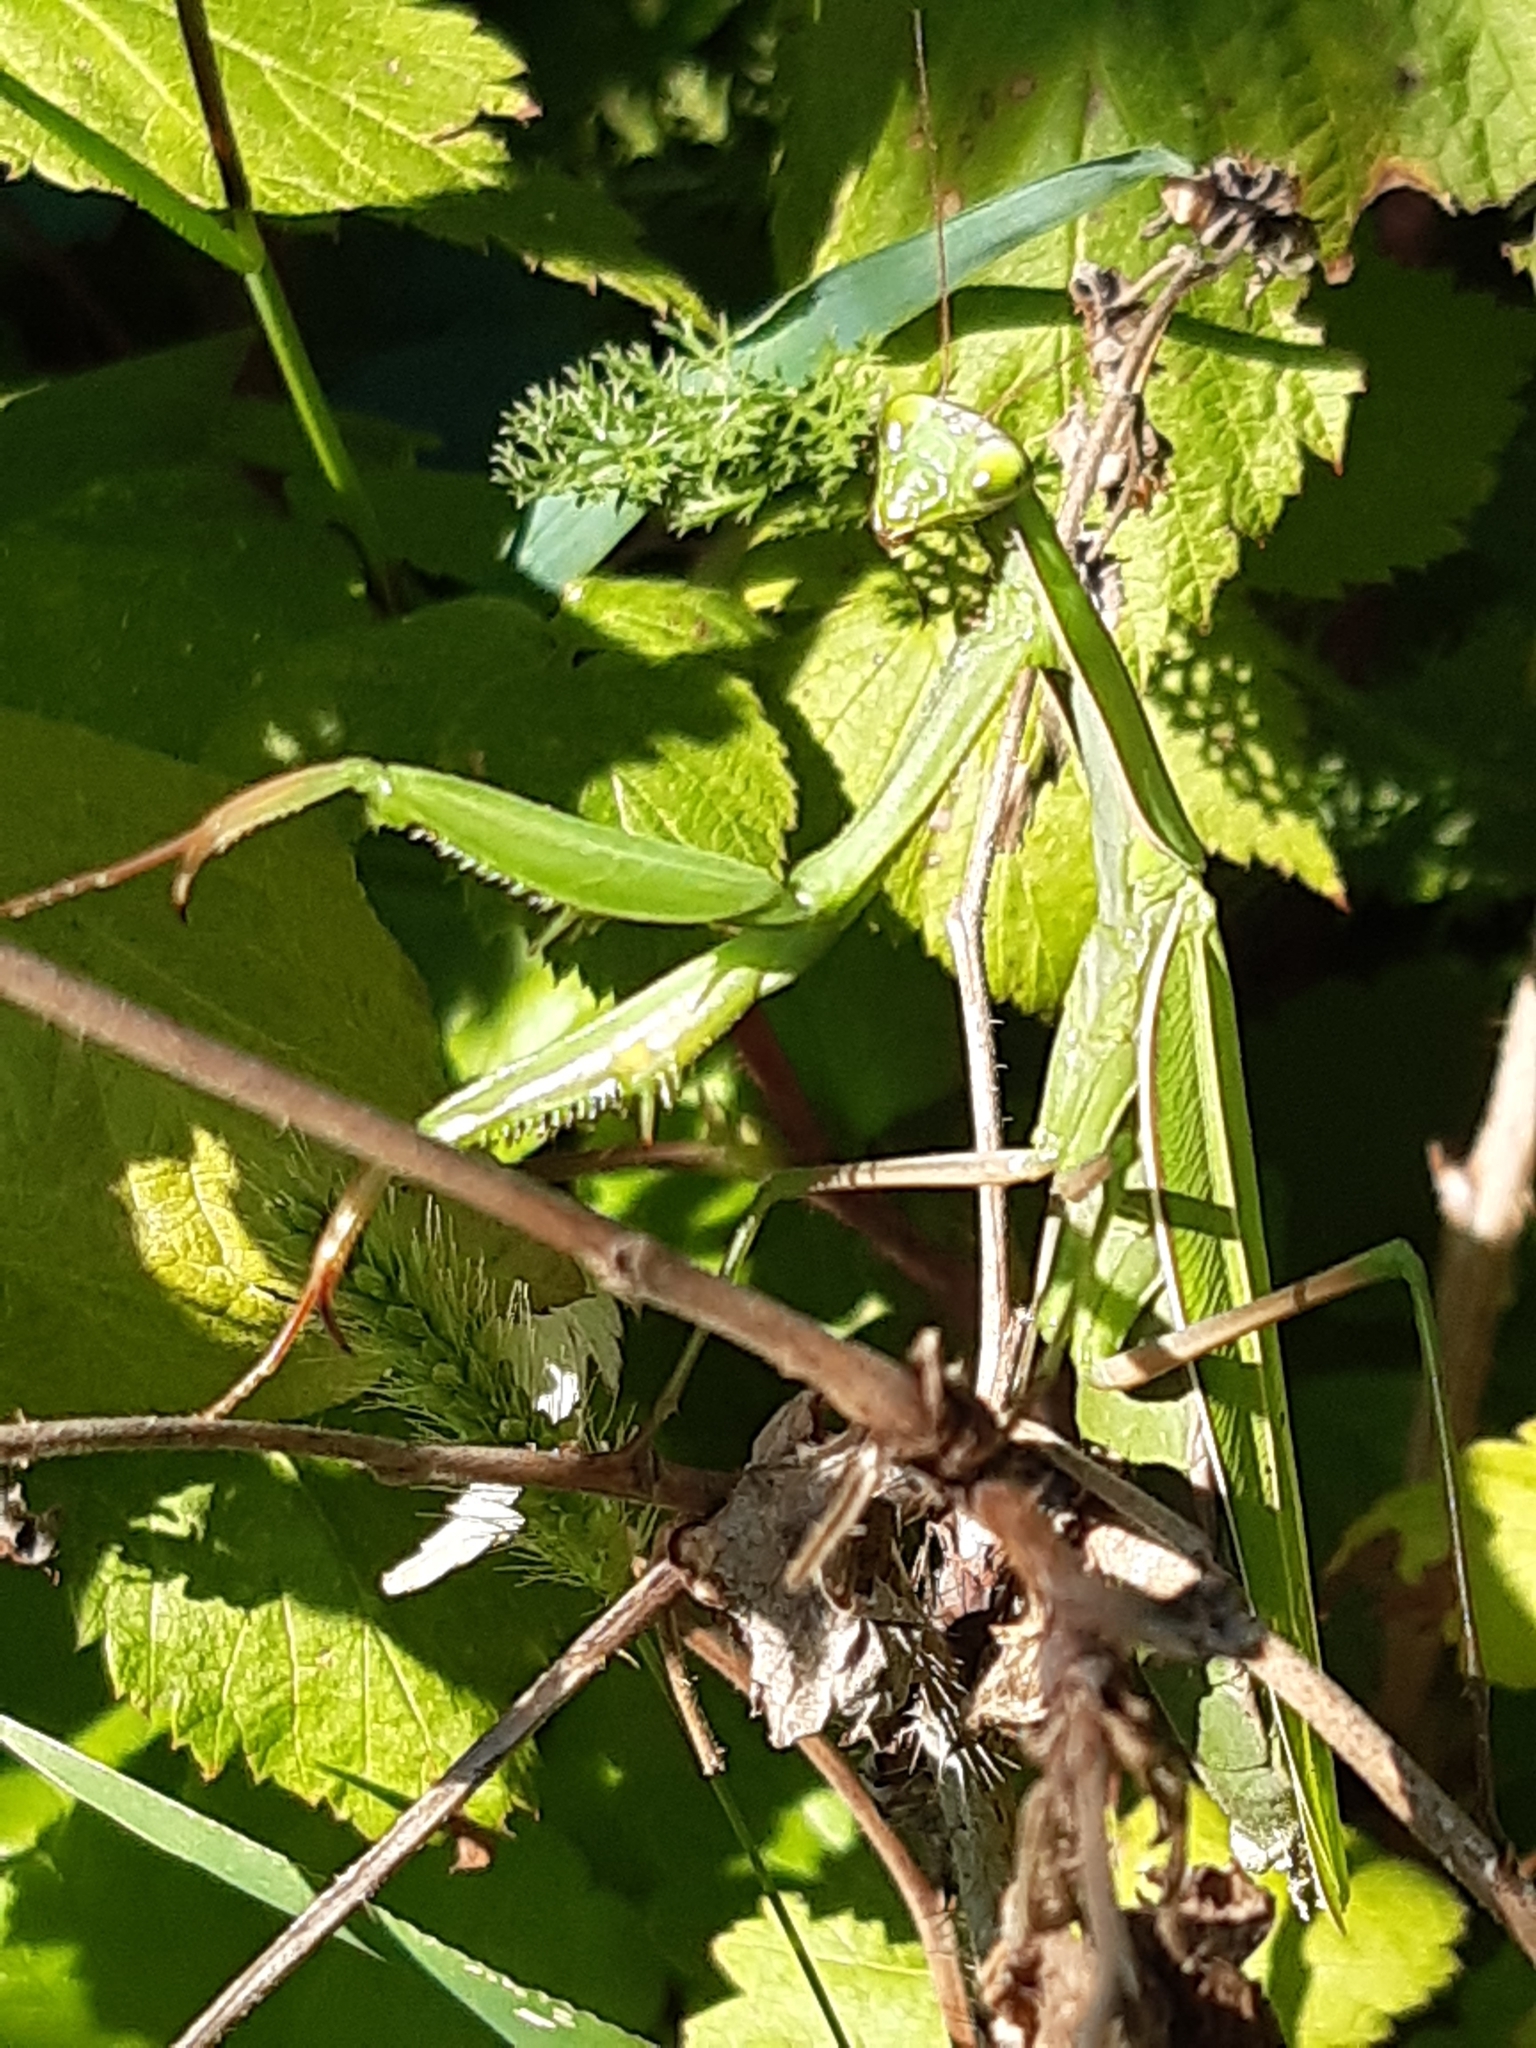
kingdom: Animalia
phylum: Arthropoda
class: Insecta
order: Mantodea
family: Mantidae
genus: Mantis
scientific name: Mantis religiosa
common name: Praying mantis
